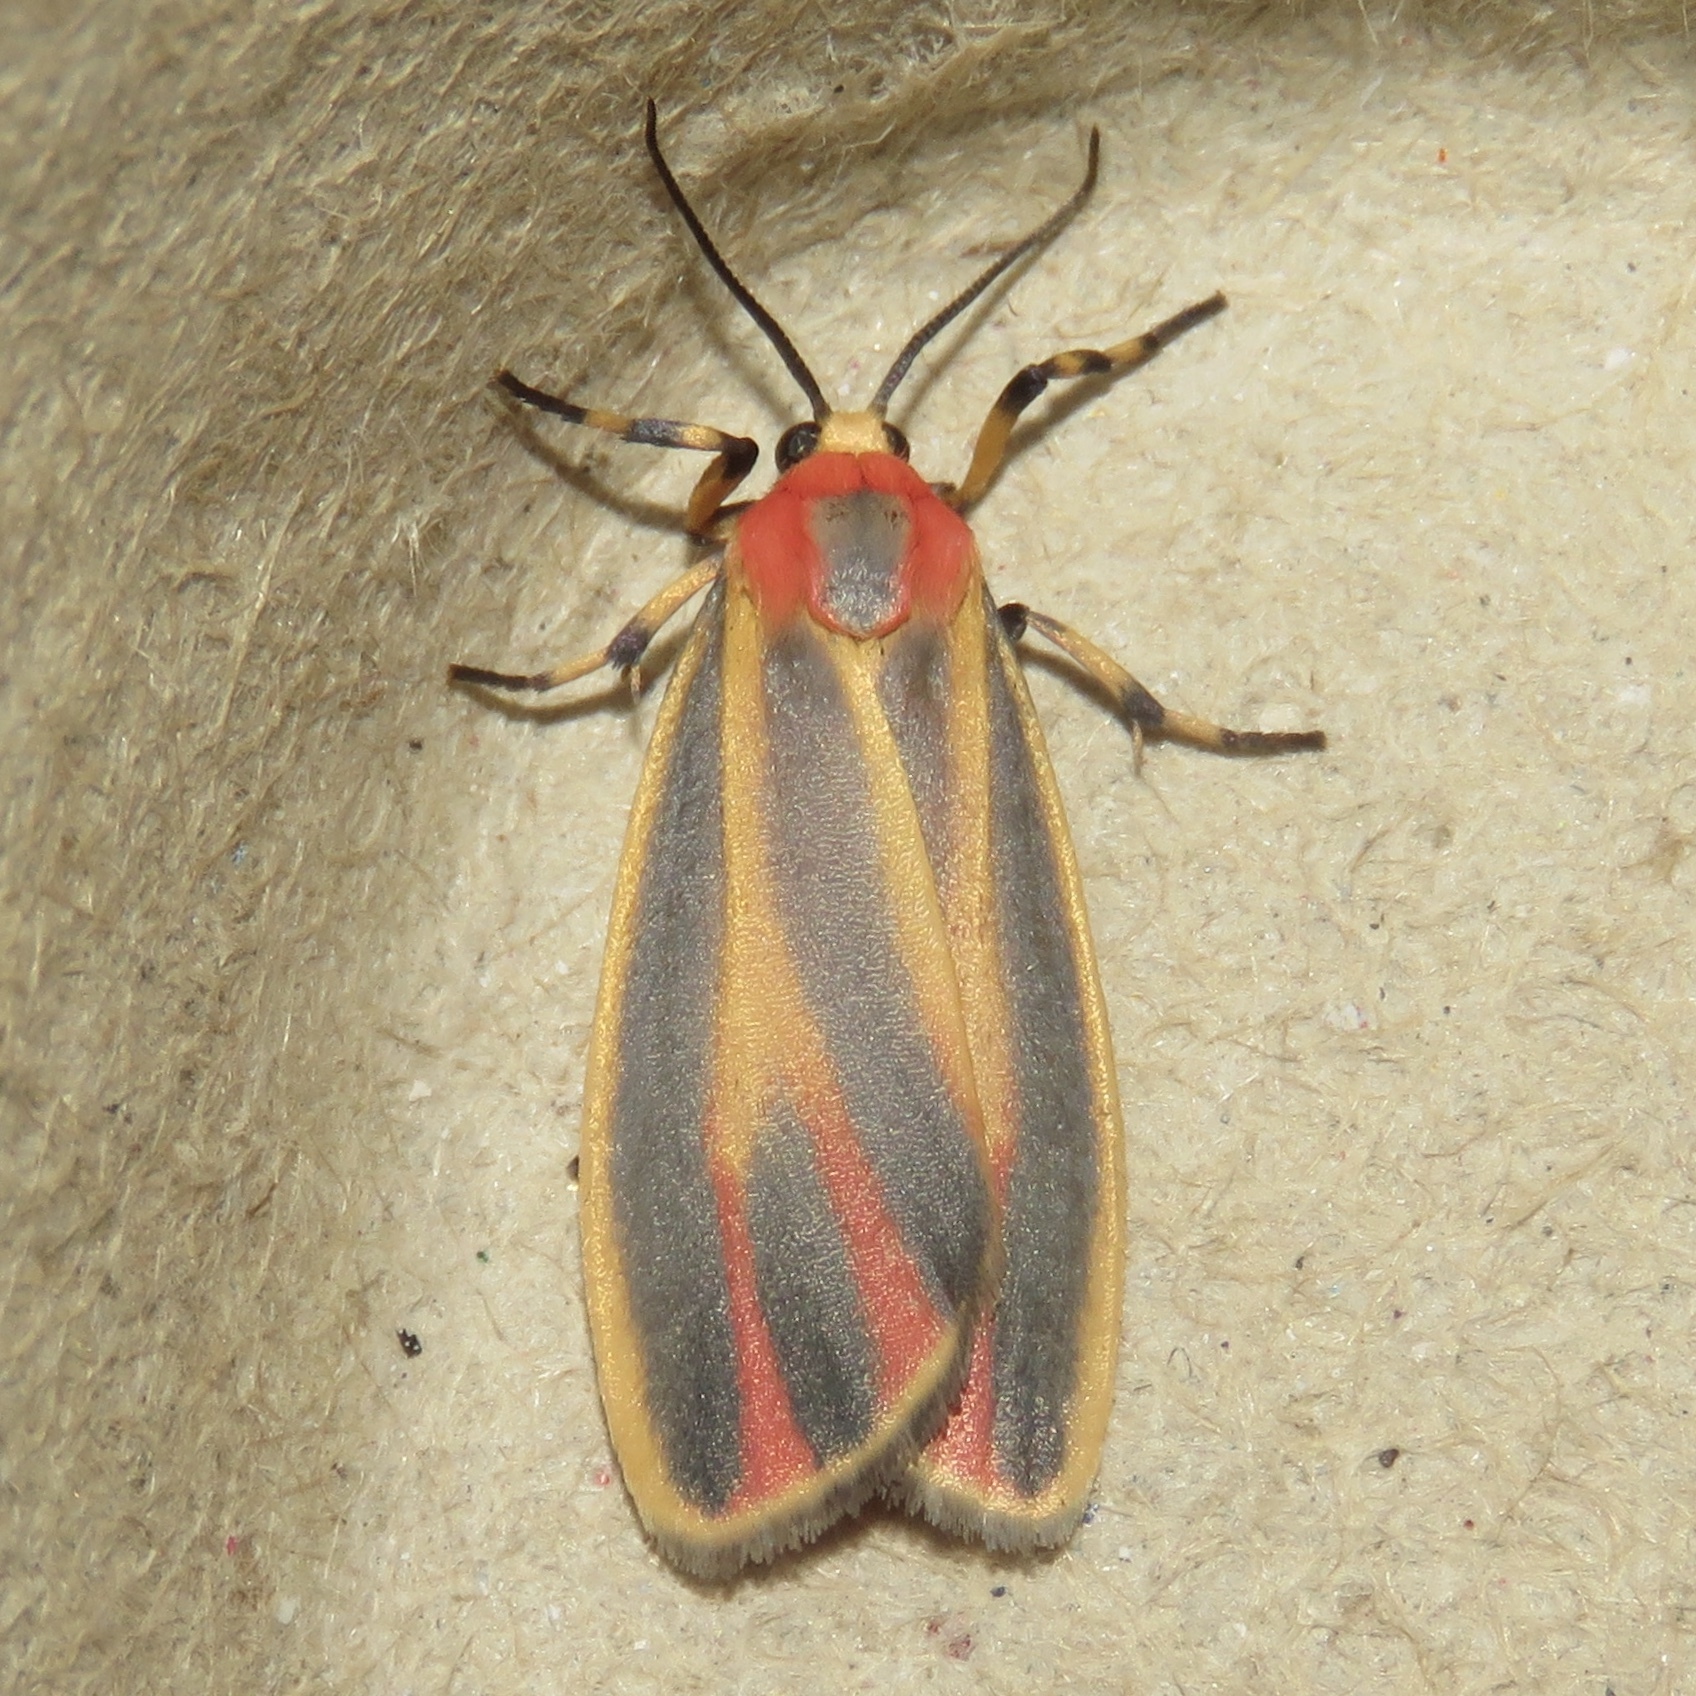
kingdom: Animalia
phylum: Arthropoda
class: Insecta
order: Lepidoptera
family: Erebidae
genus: Hypoprepia
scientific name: Hypoprepia fucosa
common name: Painted lichen moth
